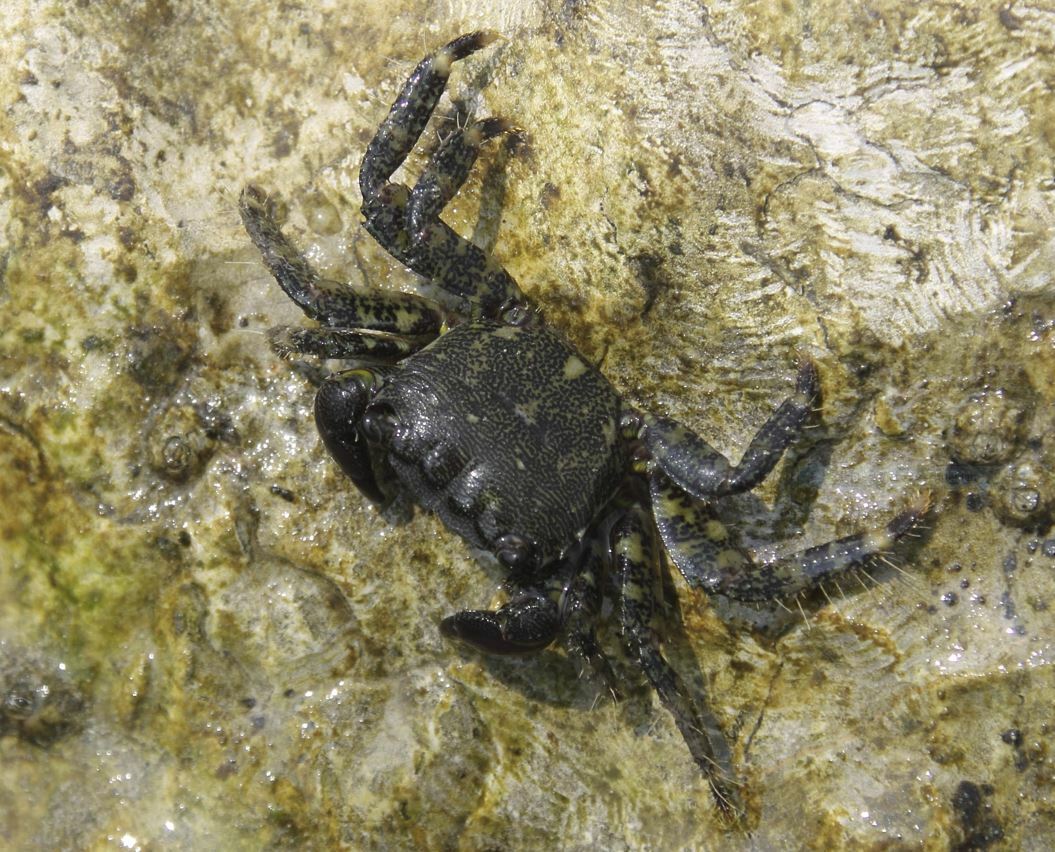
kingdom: Animalia
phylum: Arthropoda
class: Malacostraca
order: Decapoda
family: Grapsidae
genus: Pachygrapsus
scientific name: Pachygrapsus marmoratus
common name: Marbled rock crab
